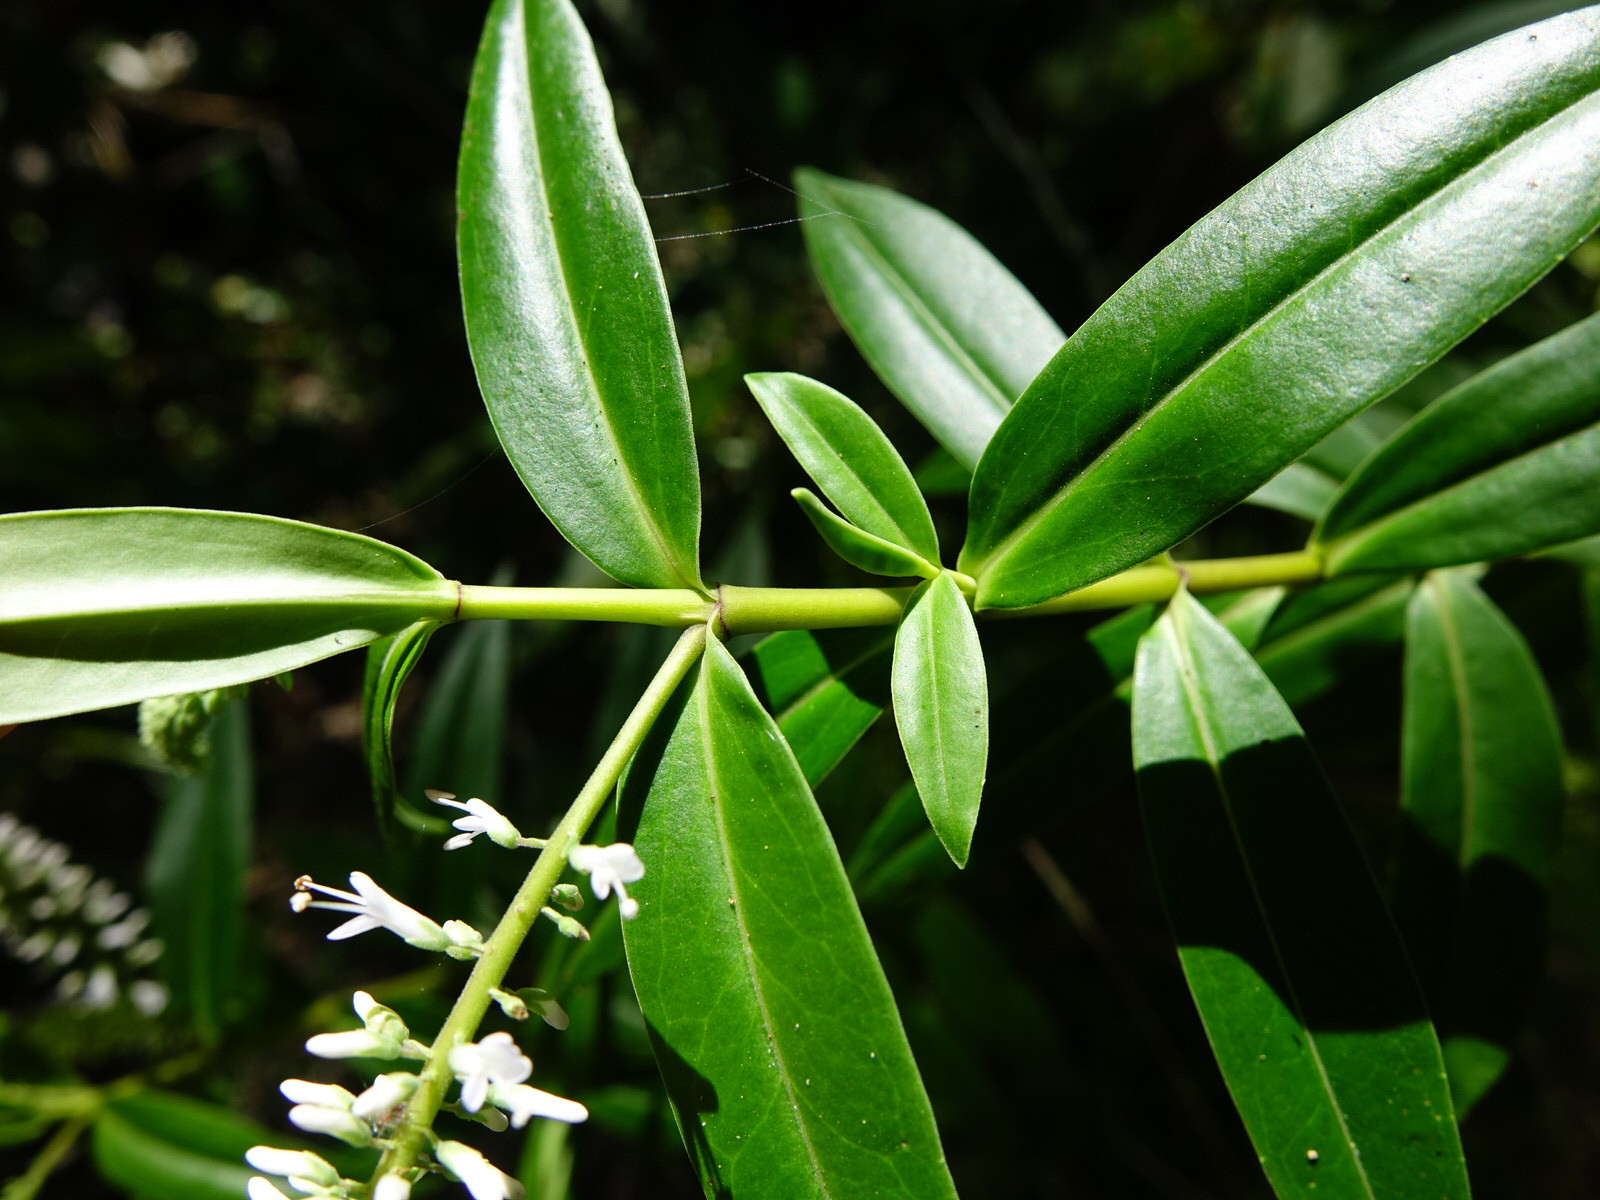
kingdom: Plantae
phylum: Tracheophyta
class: Magnoliopsida
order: Lamiales
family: Plantaginaceae
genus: Veronica
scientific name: Veronica stricta
